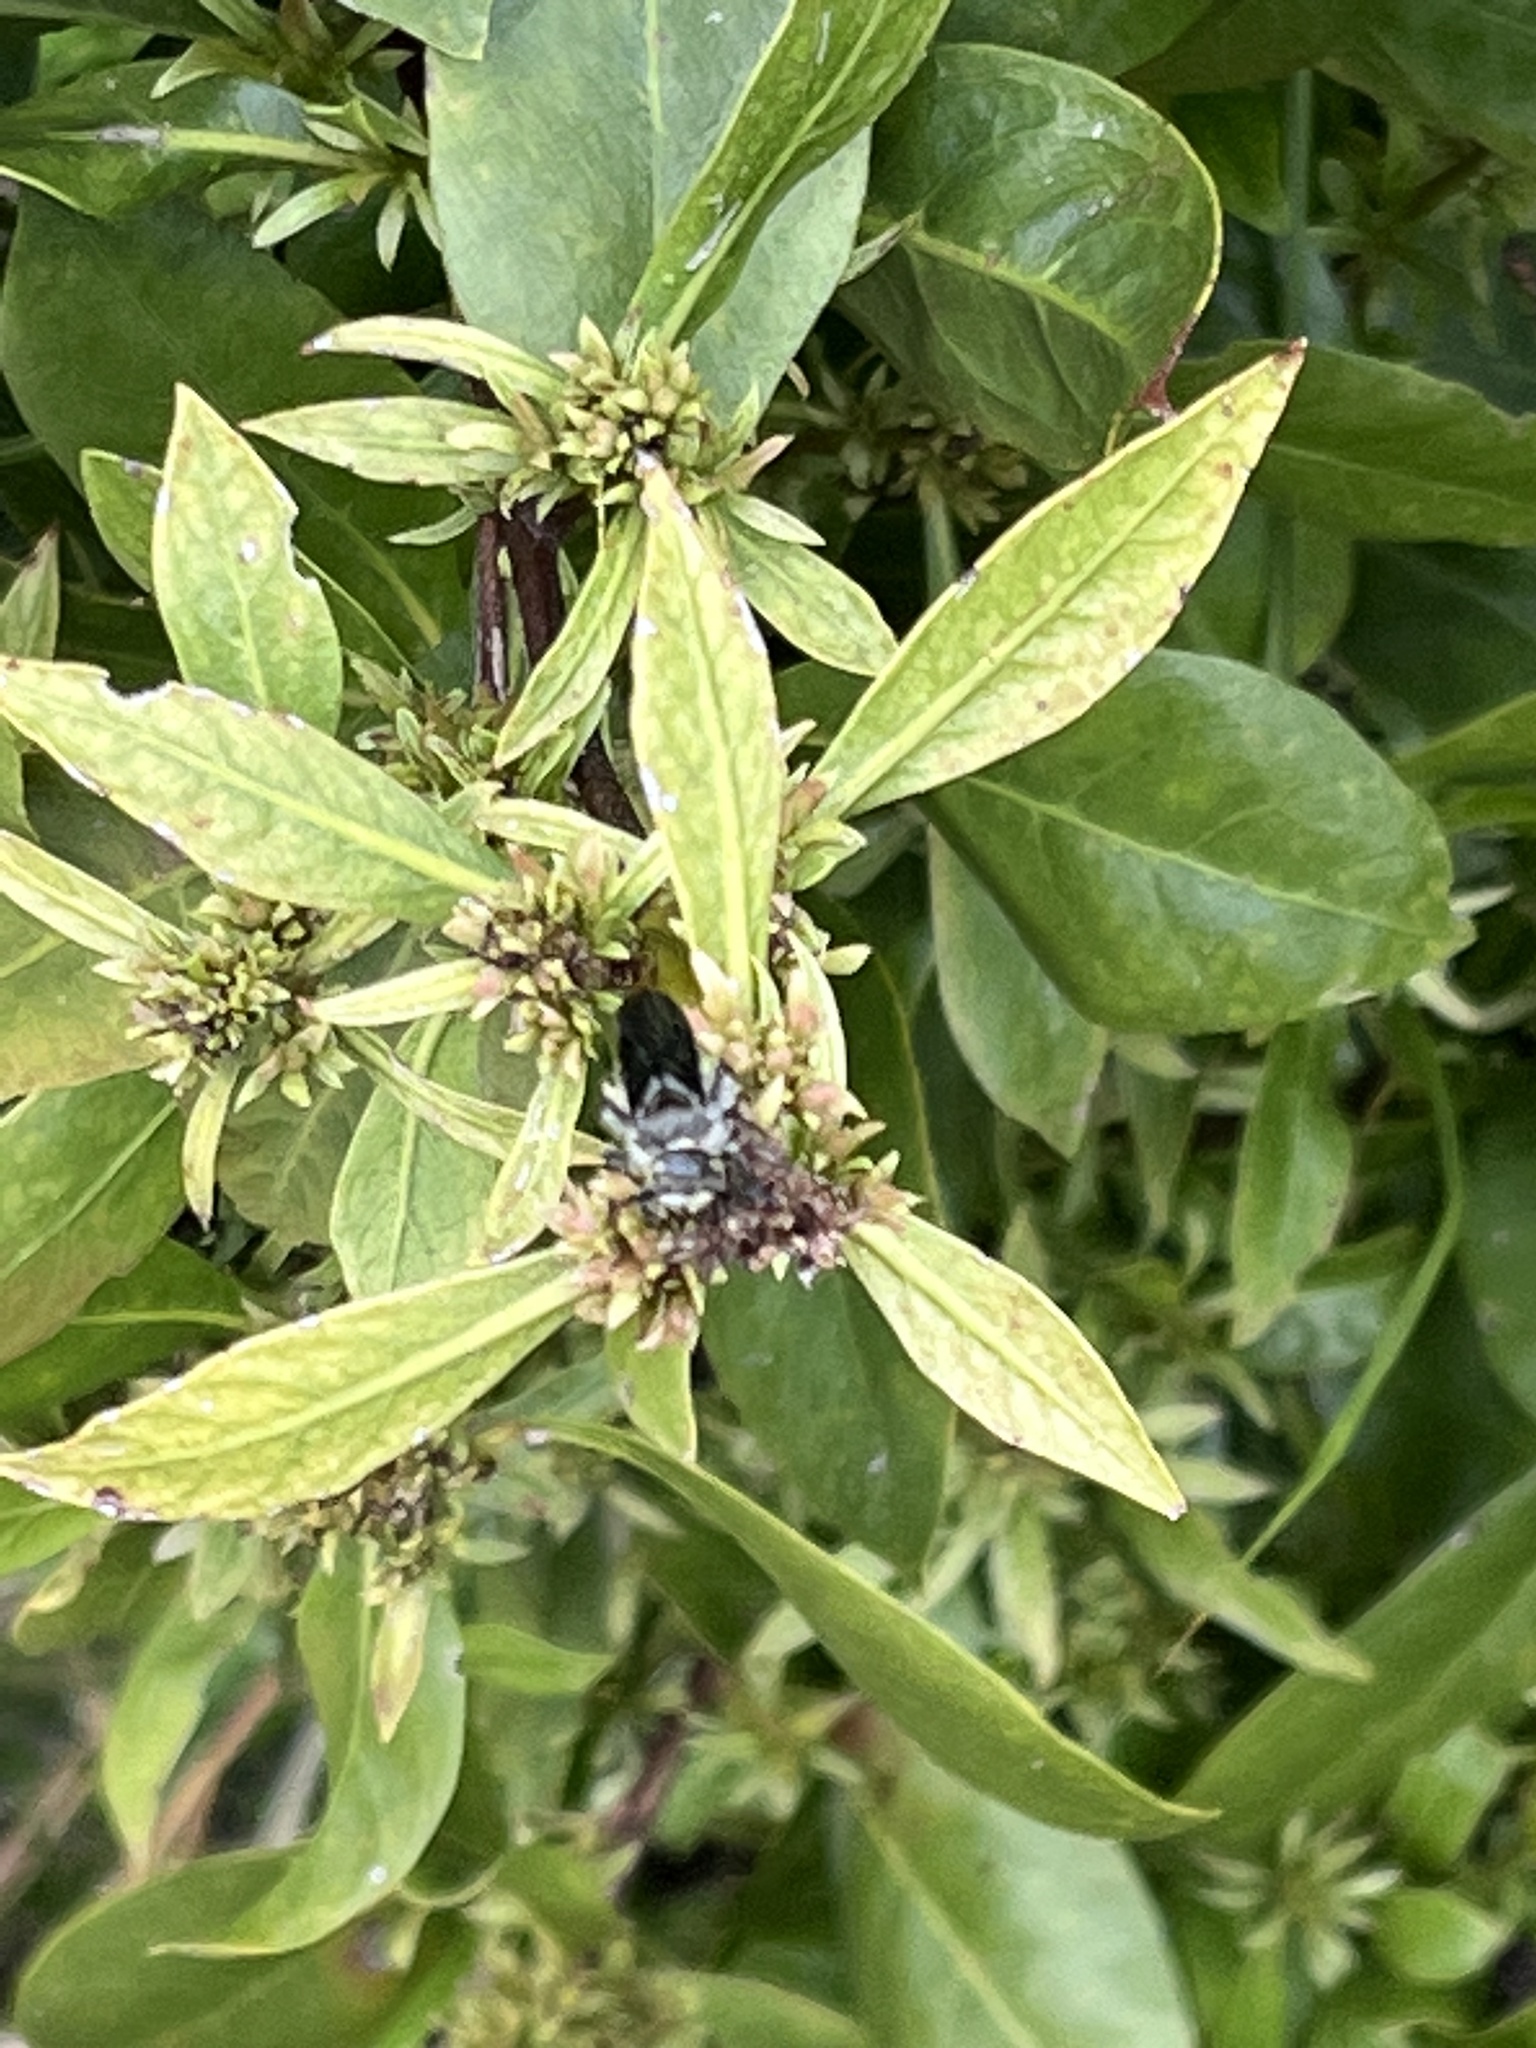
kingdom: Animalia
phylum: Arthropoda
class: Insecta
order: Hymenoptera
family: Scoliidae
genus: Dielis
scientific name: Dielis dorsata
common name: Scoliid wasp
